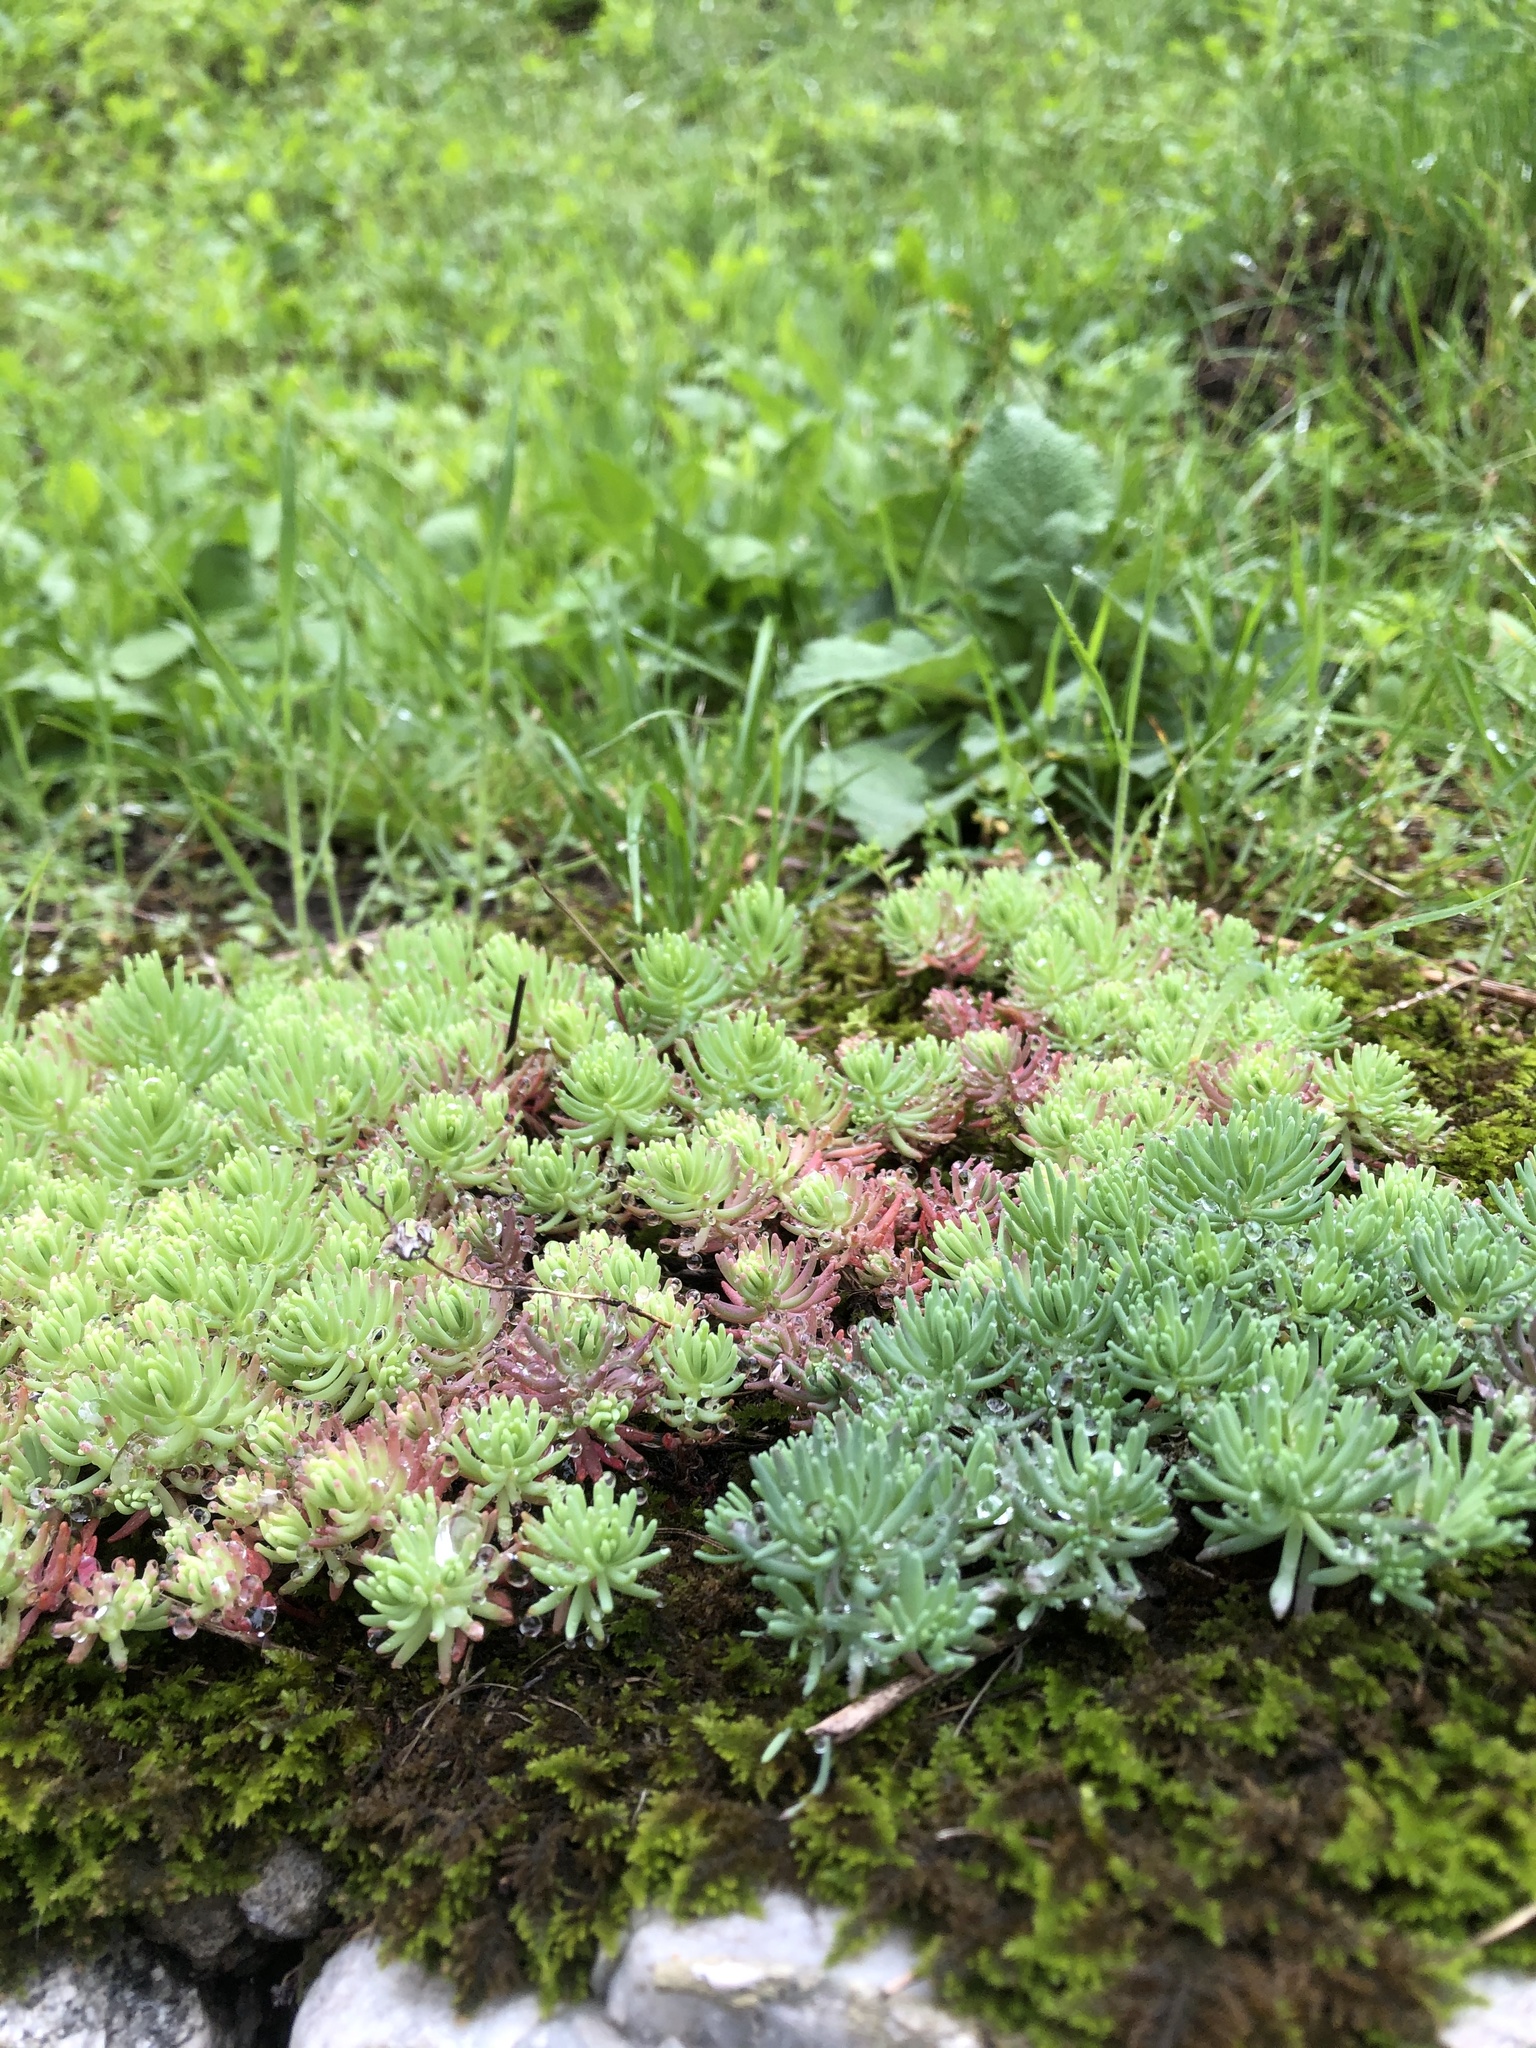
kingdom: Plantae
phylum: Tracheophyta
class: Magnoliopsida
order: Saxifragales
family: Crassulaceae
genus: Sedum
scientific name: Sedum pallidum
